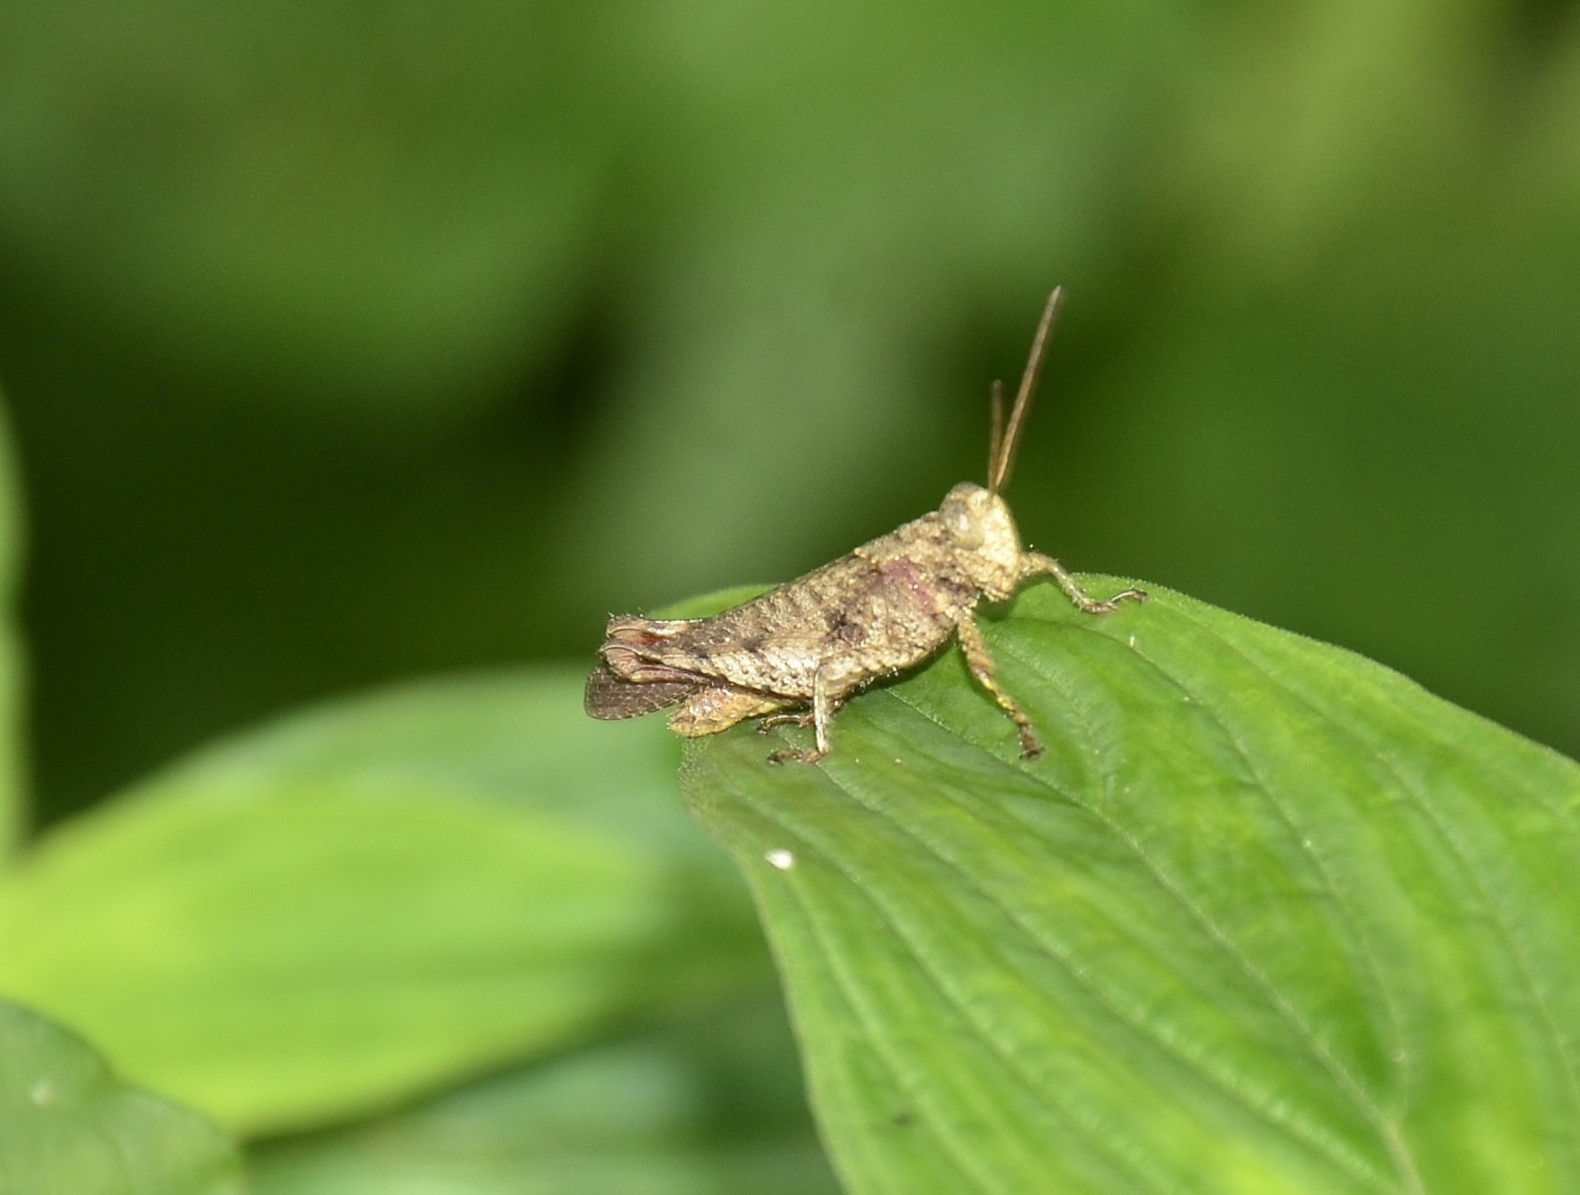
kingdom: Animalia
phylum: Arthropoda
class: Insecta
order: Orthoptera
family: Acrididae
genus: Coptacra
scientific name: Coptacra punctaria
